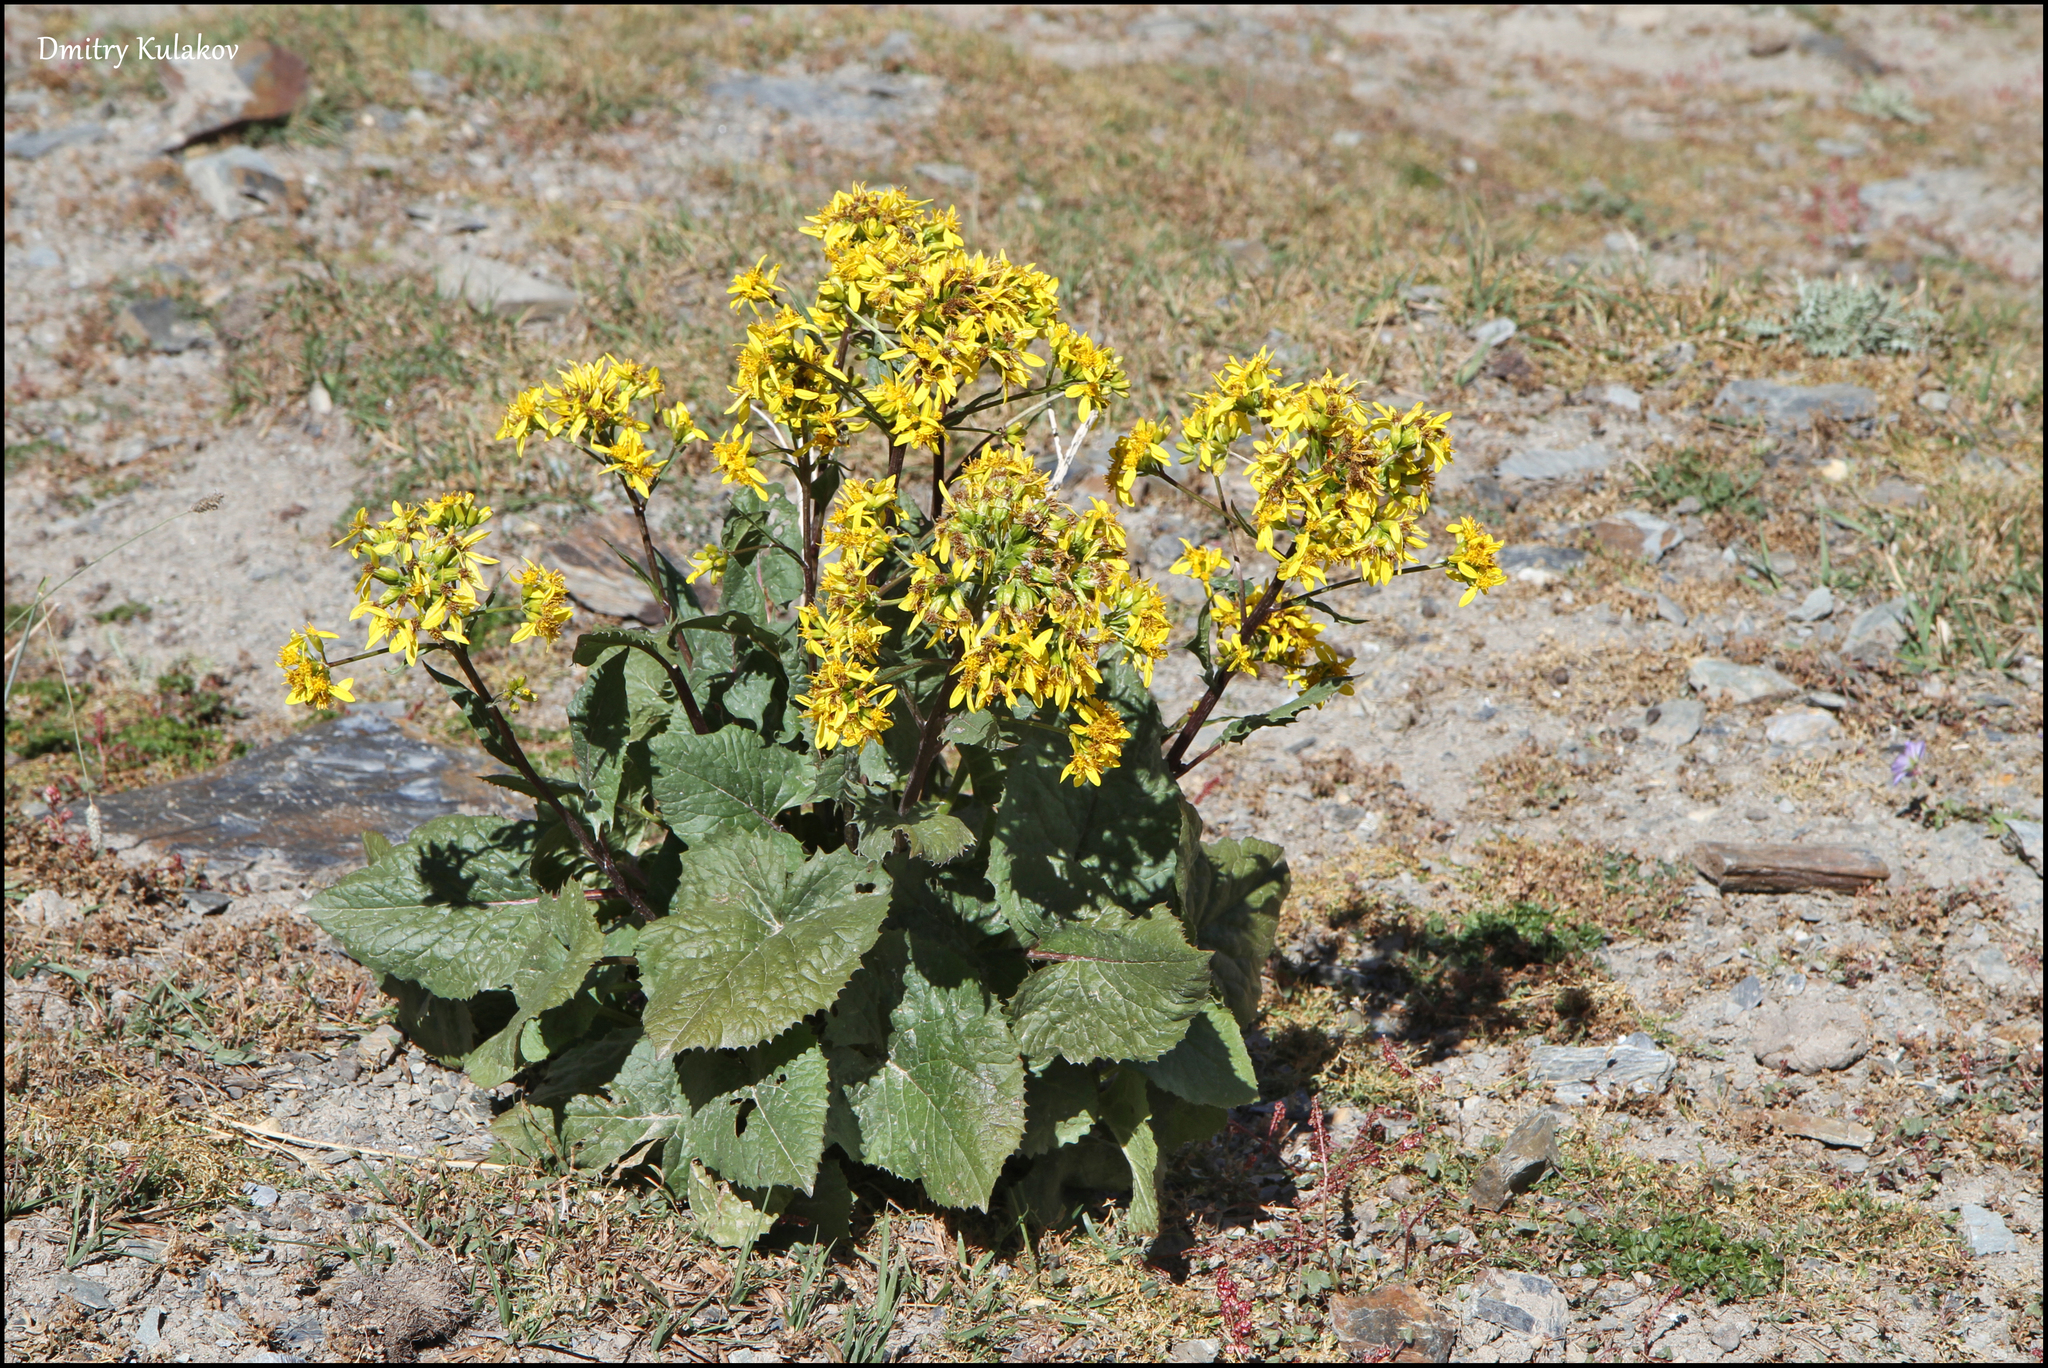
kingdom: Plantae
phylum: Tracheophyta
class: Magnoliopsida
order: Asterales
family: Asteraceae
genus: Vickifunkia
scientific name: Vickifunkia thomsonii
